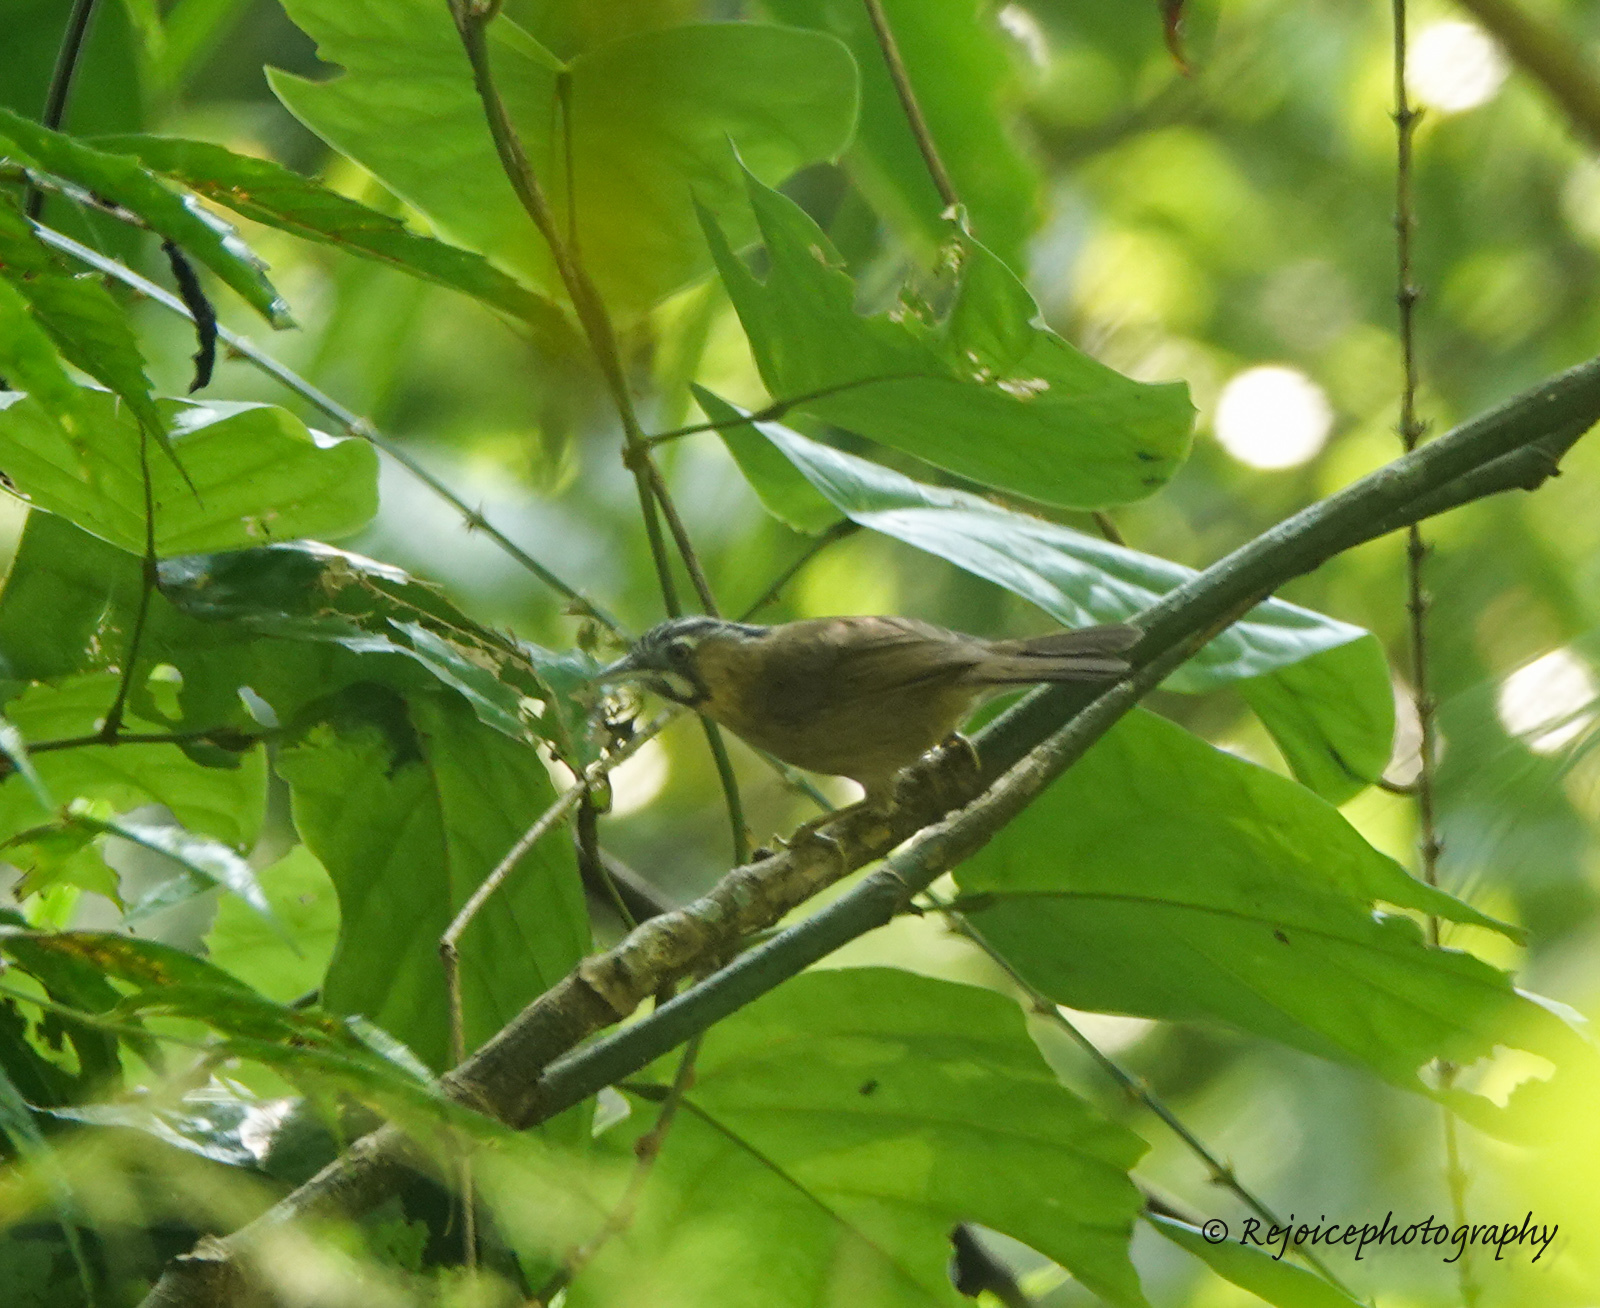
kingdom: Animalia
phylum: Chordata
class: Aves
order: Passeriformes
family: Timaliidae
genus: Stachyris
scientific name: Stachyris nigriceps
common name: Grey-throated babbler
